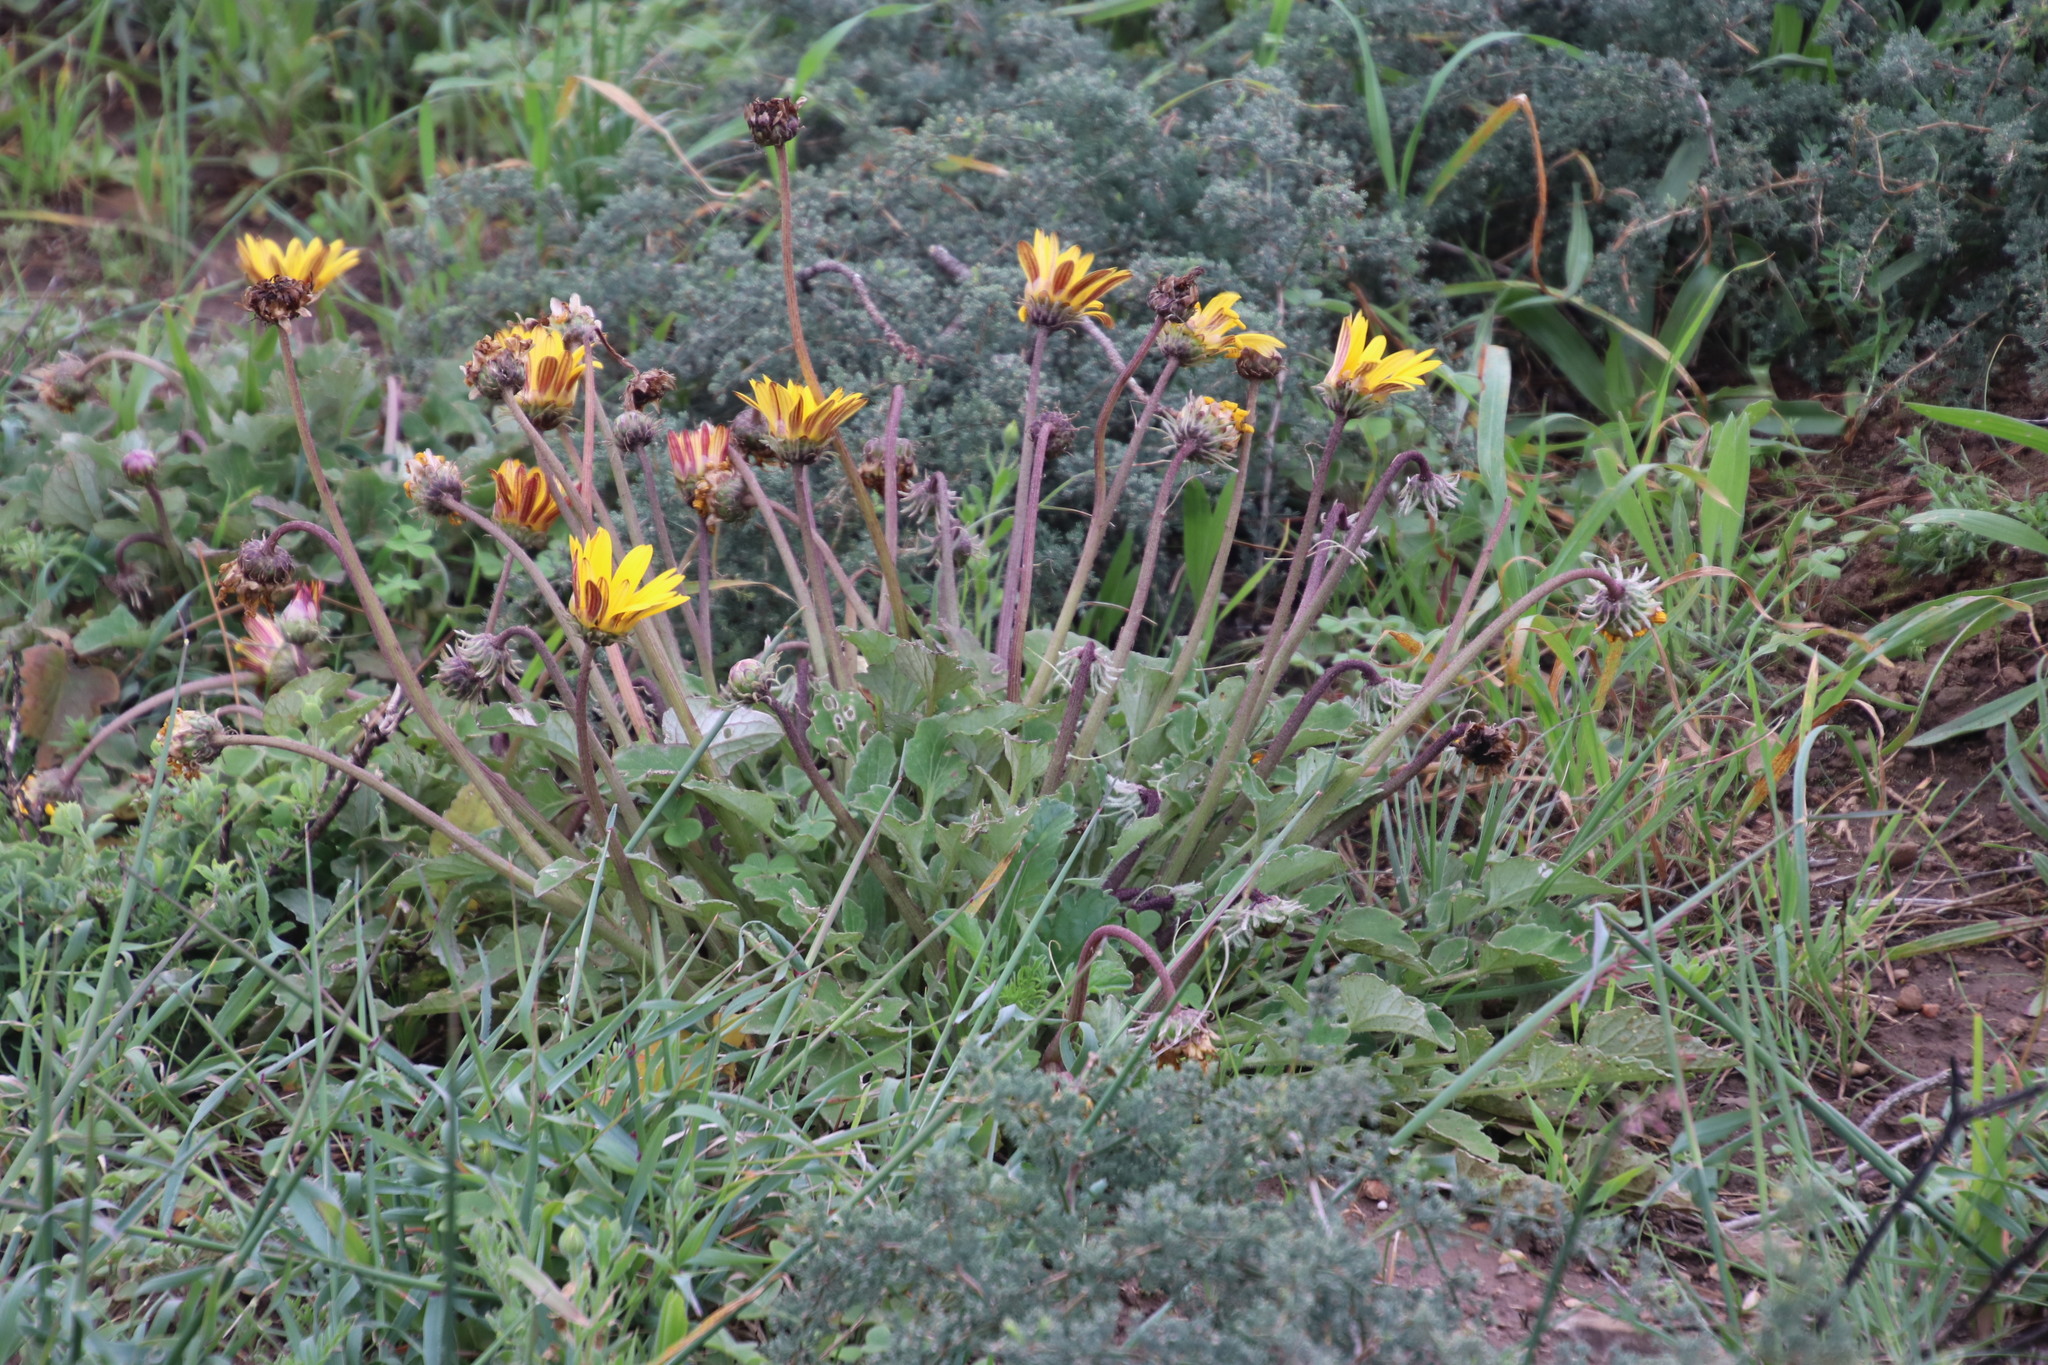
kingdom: Plantae
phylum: Tracheophyta
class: Magnoliopsida
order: Asterales
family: Asteraceae
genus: Arctotis
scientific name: Arctotis acaulis
